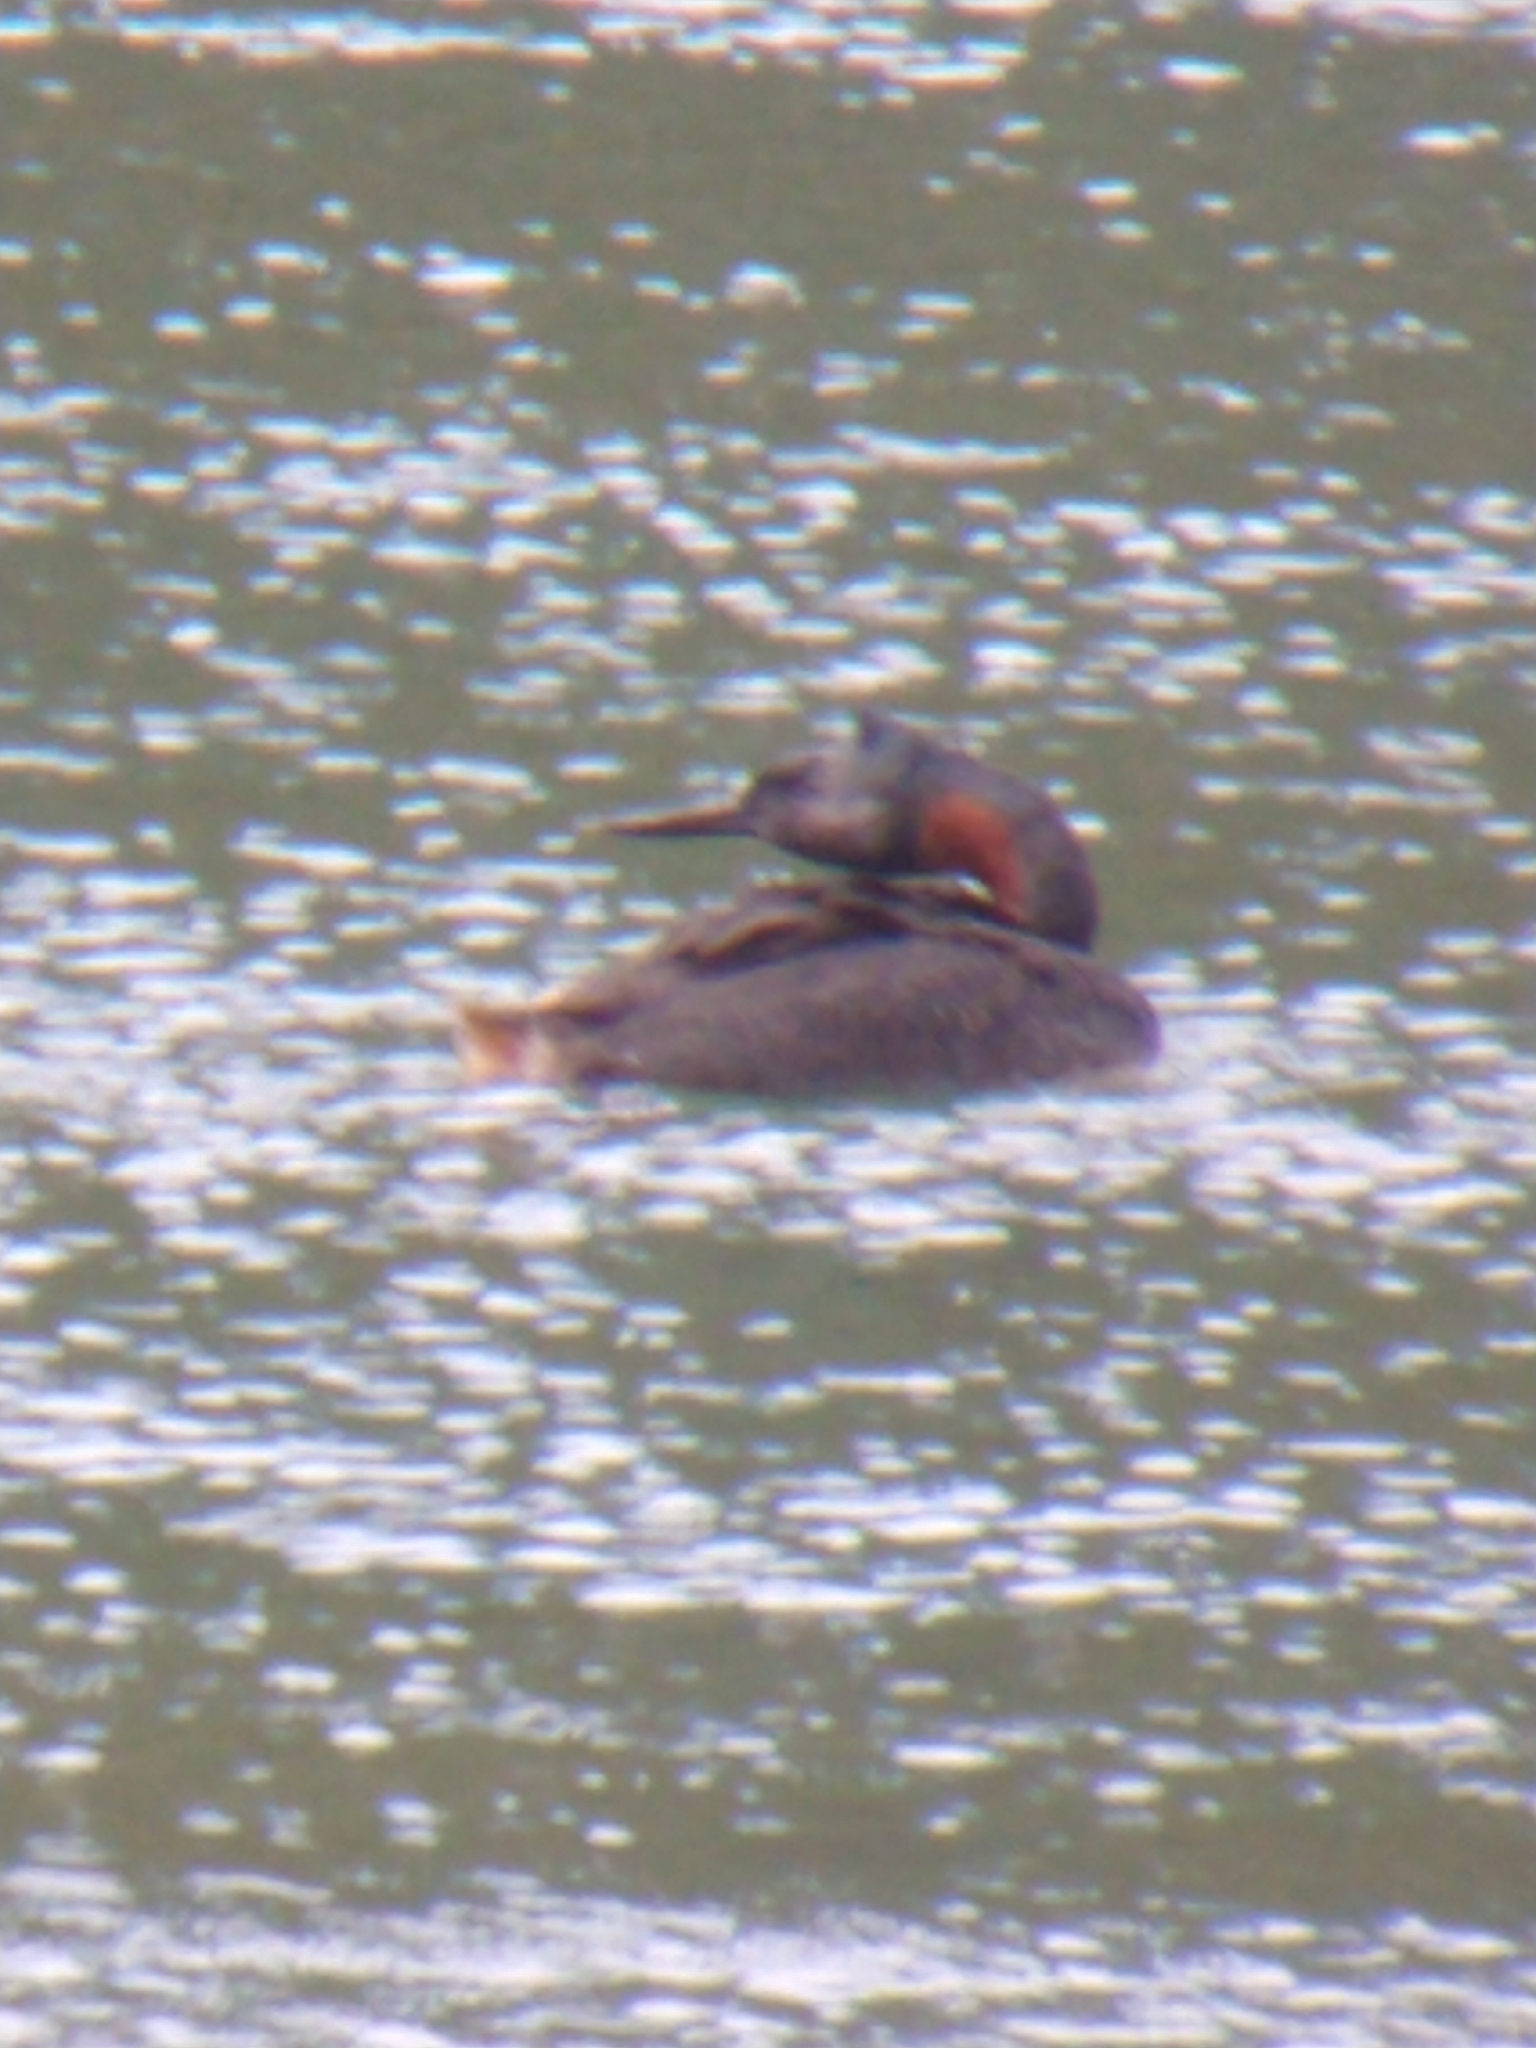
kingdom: Animalia
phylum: Chordata
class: Aves
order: Podicipediformes
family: Podicipedidae
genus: Podiceps
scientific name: Podiceps major
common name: Great grebe
